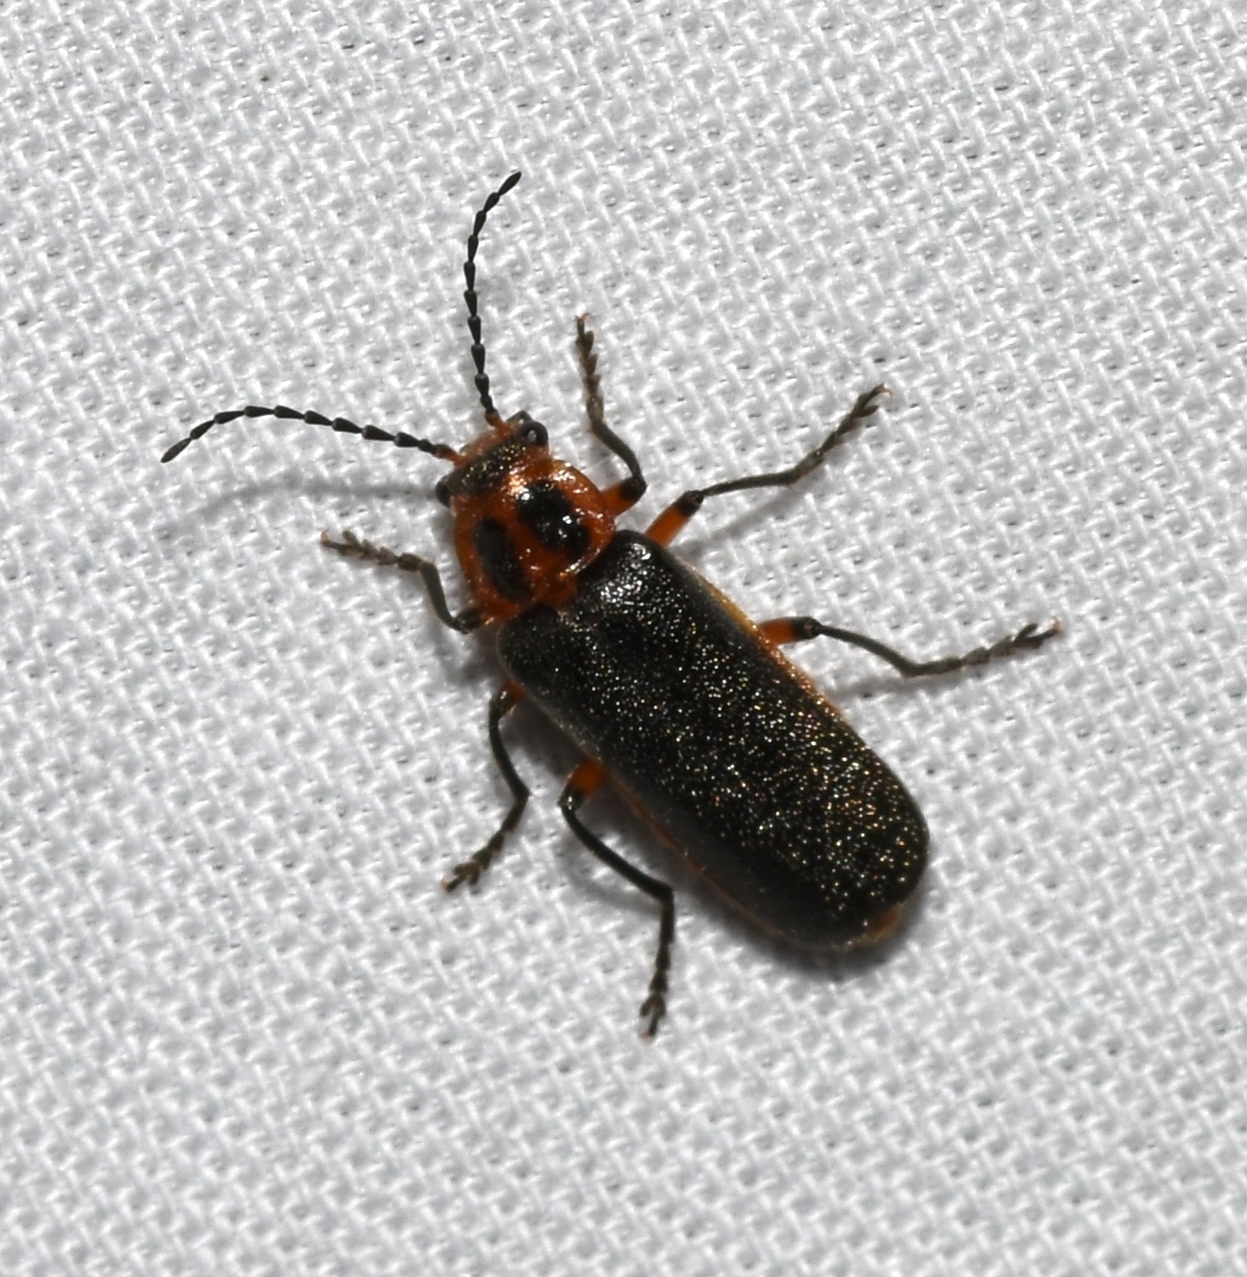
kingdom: Animalia
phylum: Arthropoda
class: Insecta
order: Coleoptera
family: Cantharidae
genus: Atalantycha
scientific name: Atalantycha bilineata
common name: Two-lined leatherwing
